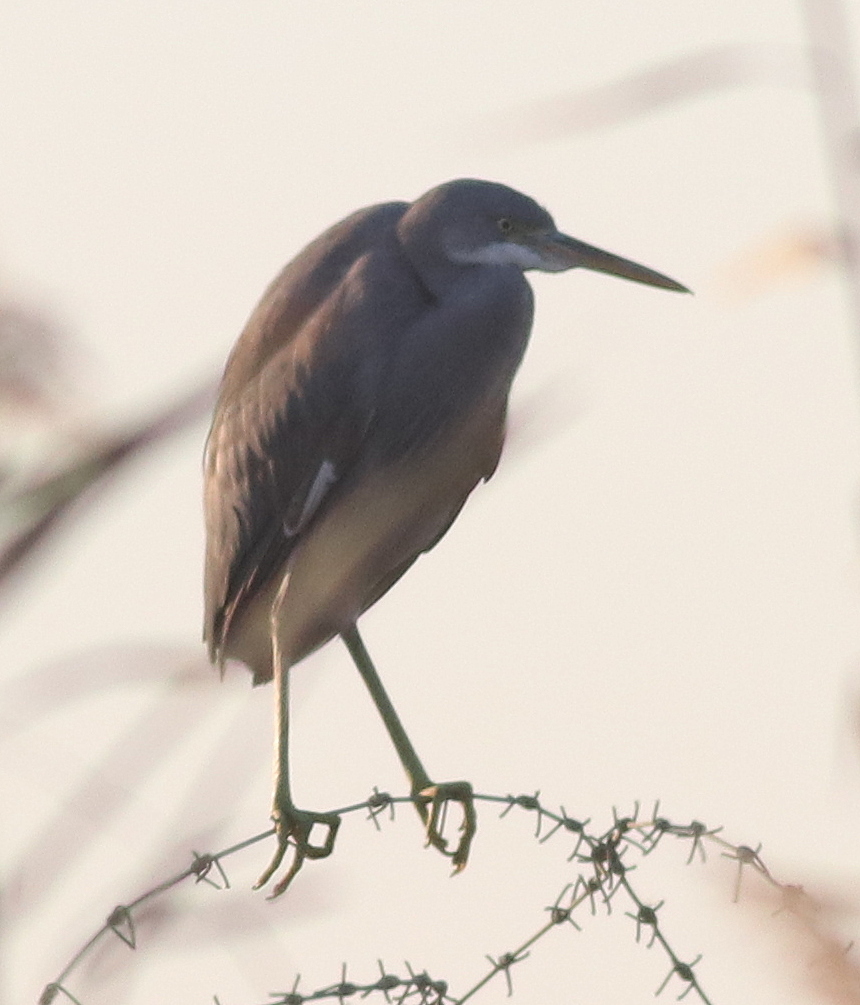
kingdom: Animalia
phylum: Chordata
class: Aves
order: Pelecaniformes
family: Ardeidae
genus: Egretta
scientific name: Egretta gularis
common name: Western reef-heron
